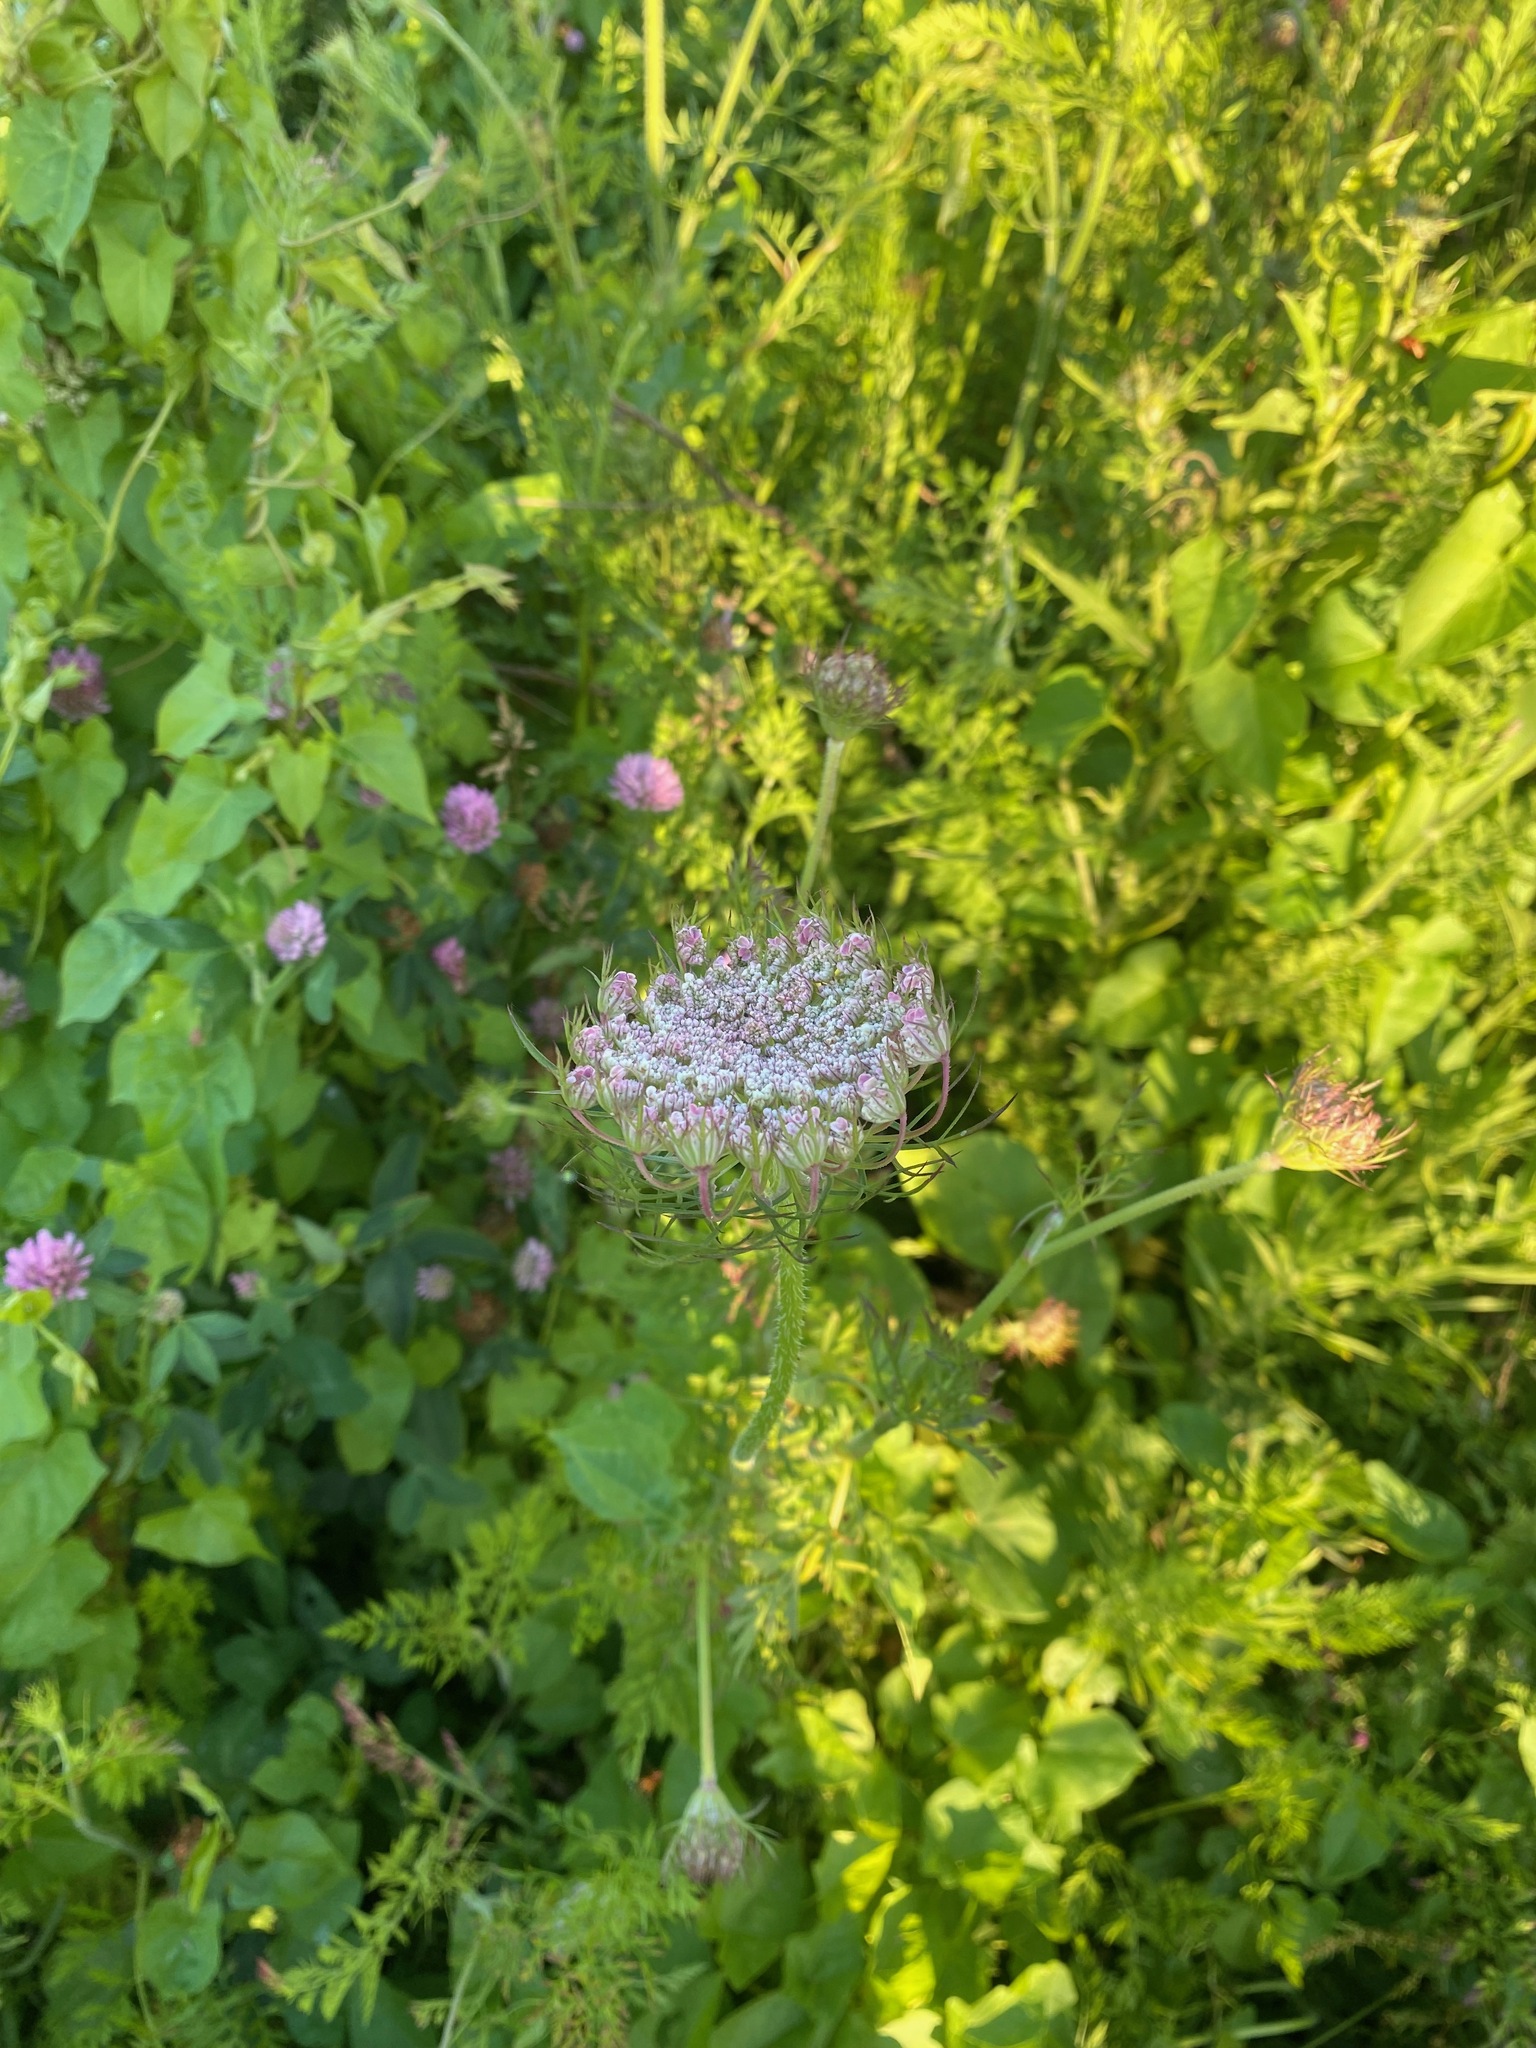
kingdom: Plantae
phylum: Tracheophyta
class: Magnoliopsida
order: Apiales
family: Apiaceae
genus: Daucus
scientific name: Daucus carota
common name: Wild carrot
